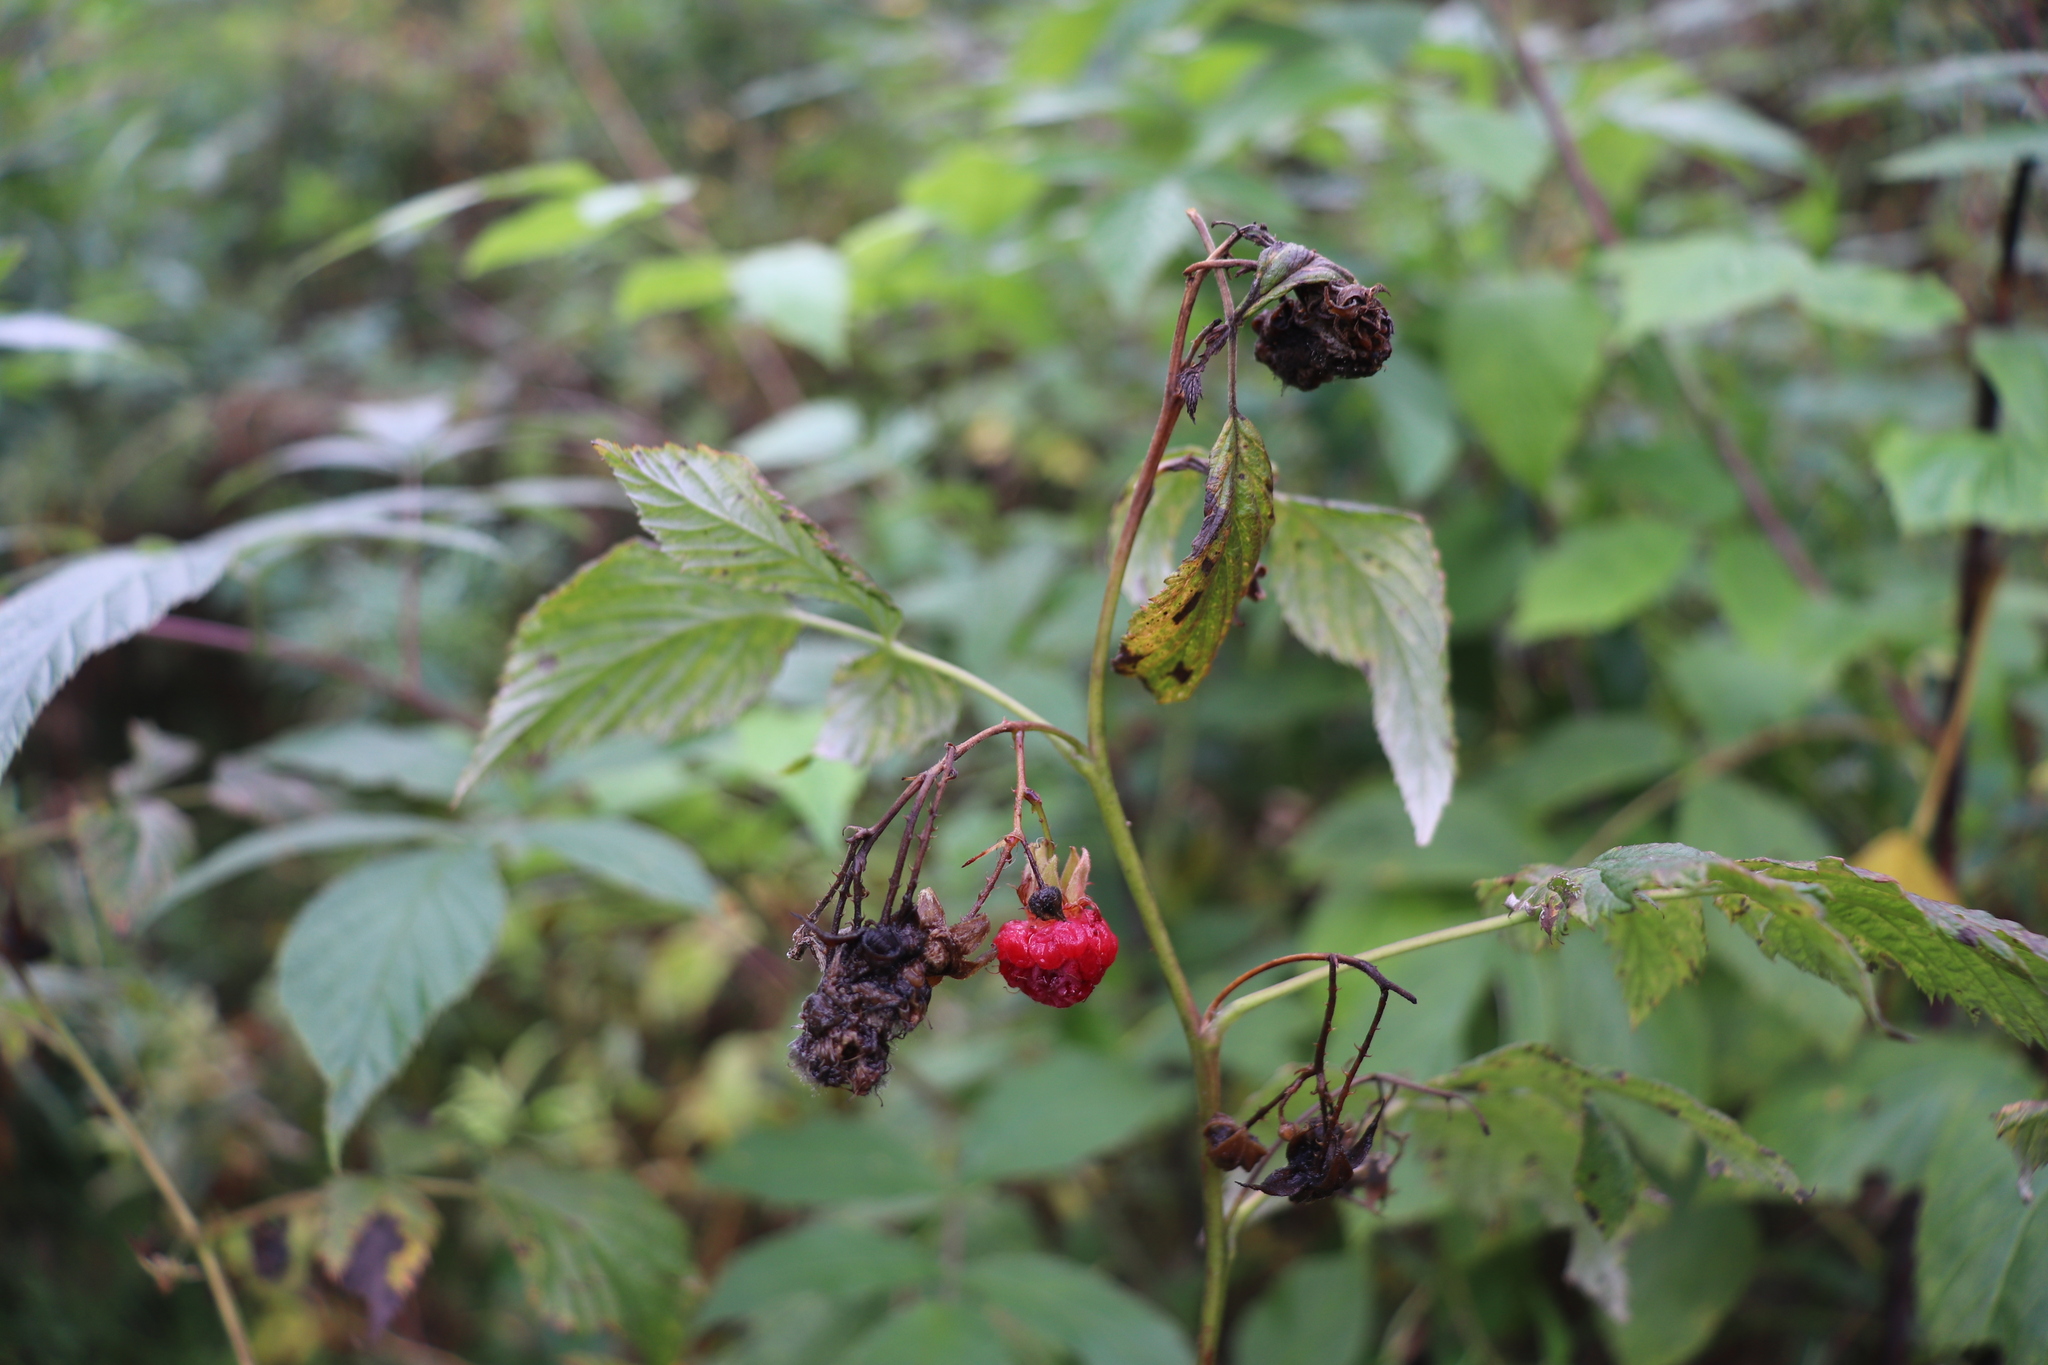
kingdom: Plantae
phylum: Tracheophyta
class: Magnoliopsida
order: Rosales
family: Rosaceae
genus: Rubus
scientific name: Rubus idaeus
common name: Raspberry
